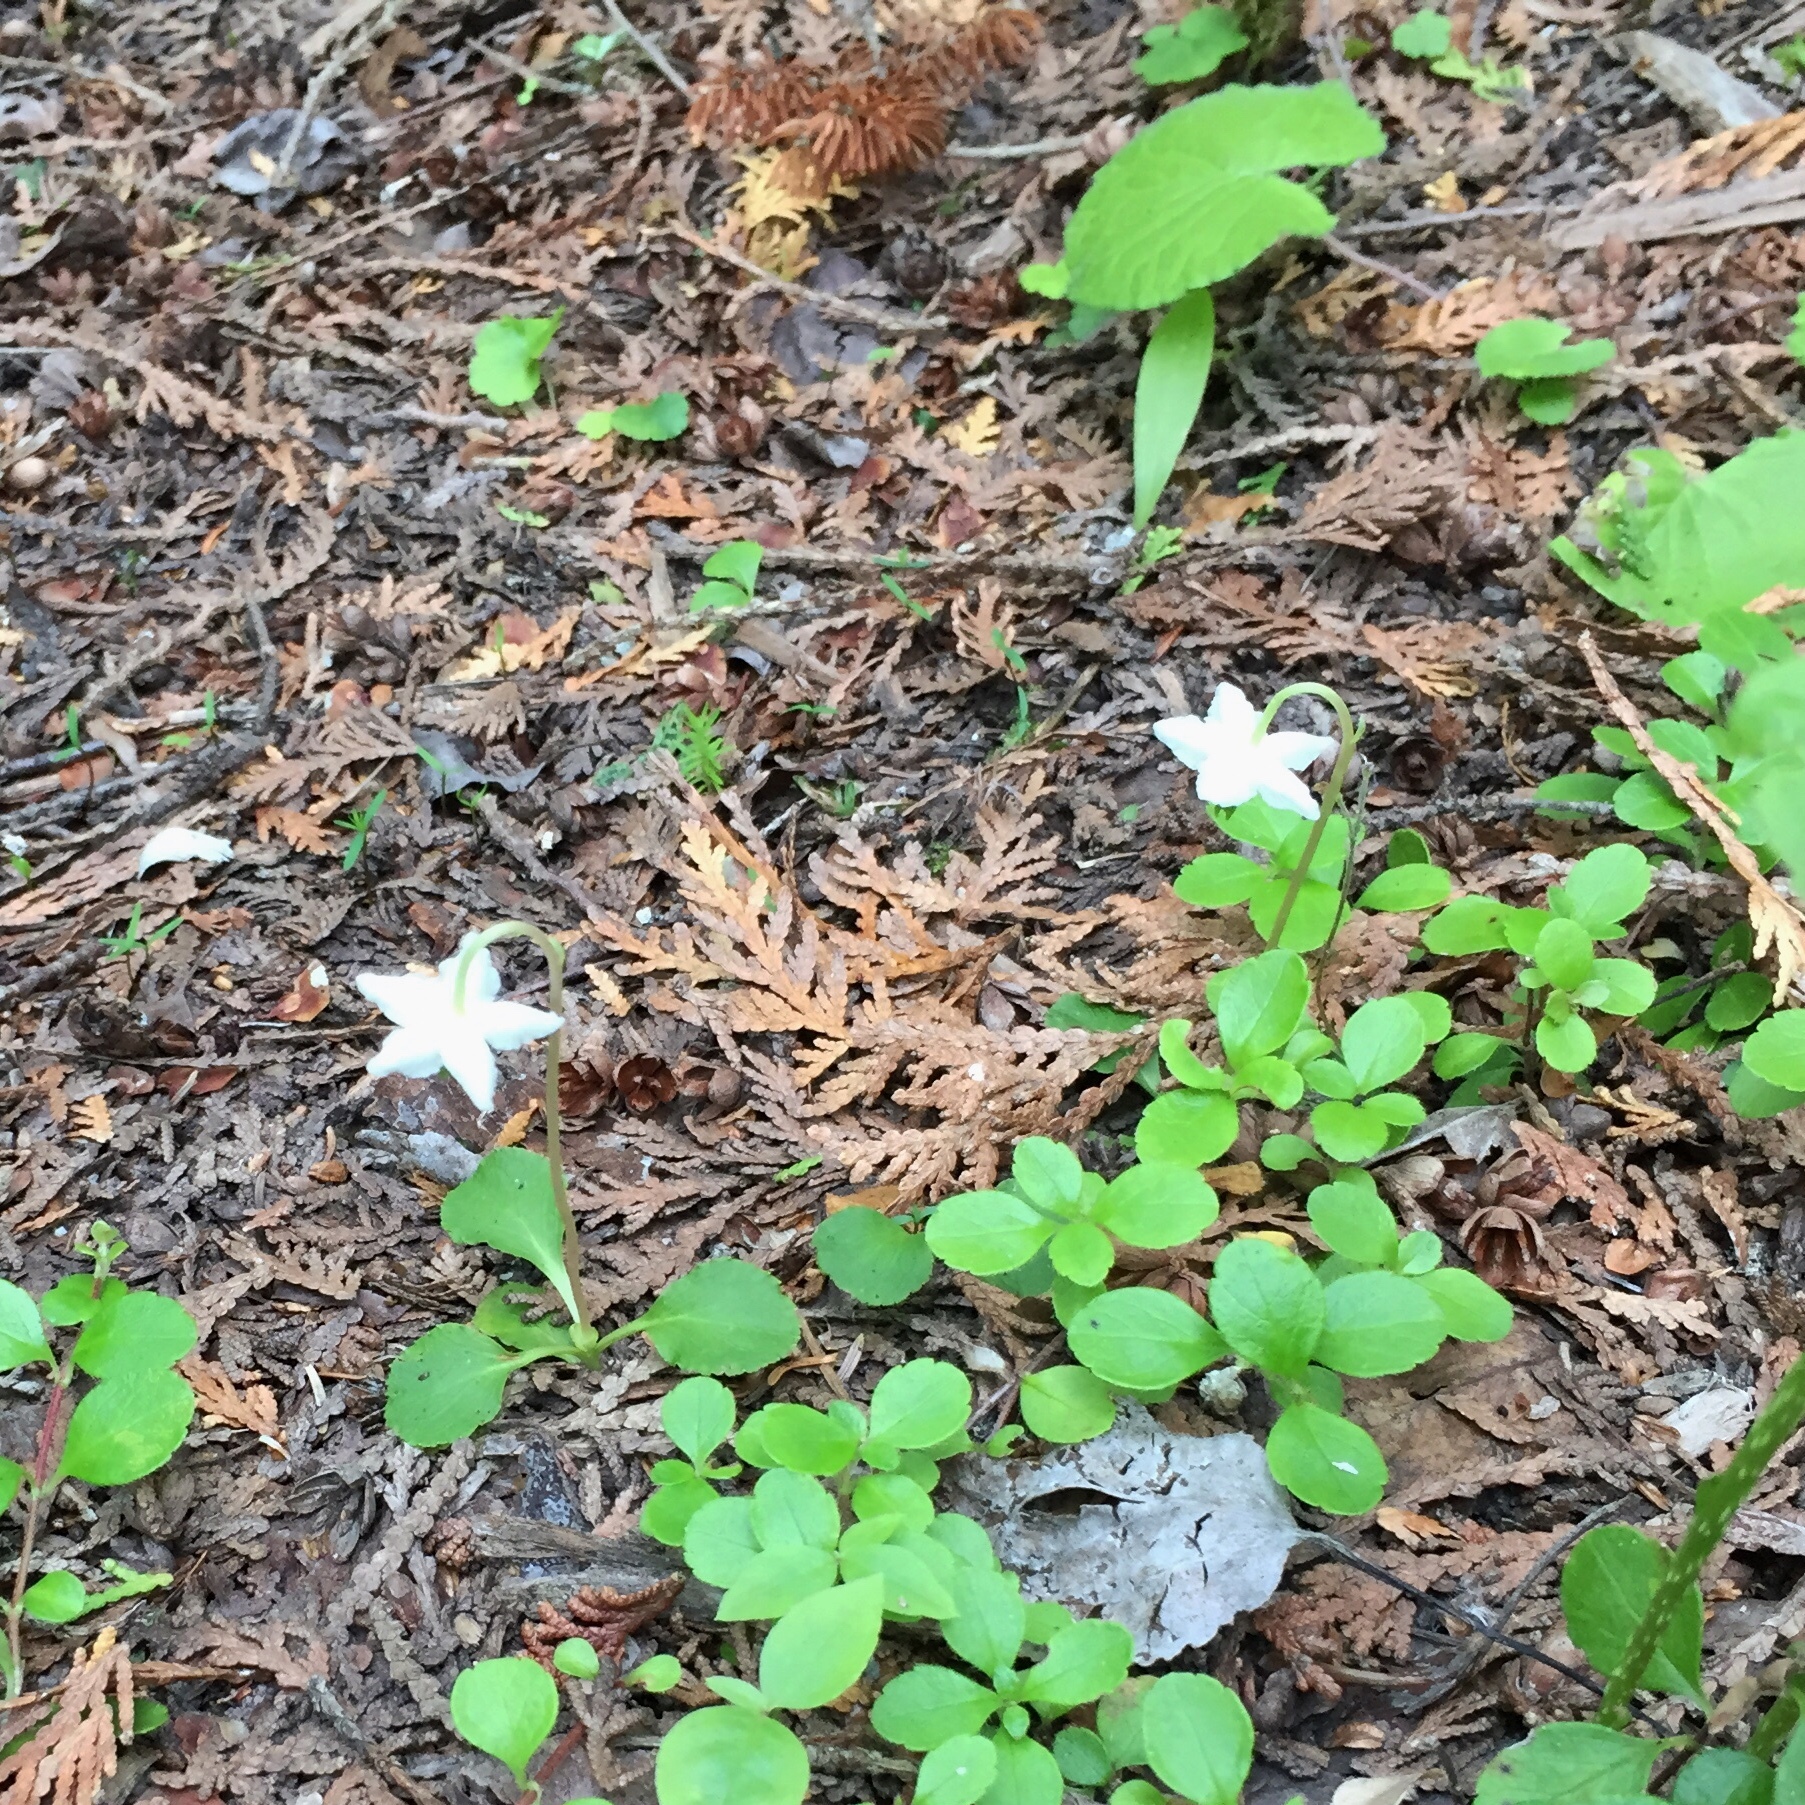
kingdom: Plantae
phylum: Tracheophyta
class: Magnoliopsida
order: Ericales
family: Ericaceae
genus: Moneses
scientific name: Moneses uniflora
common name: One-flowered wintergreen
